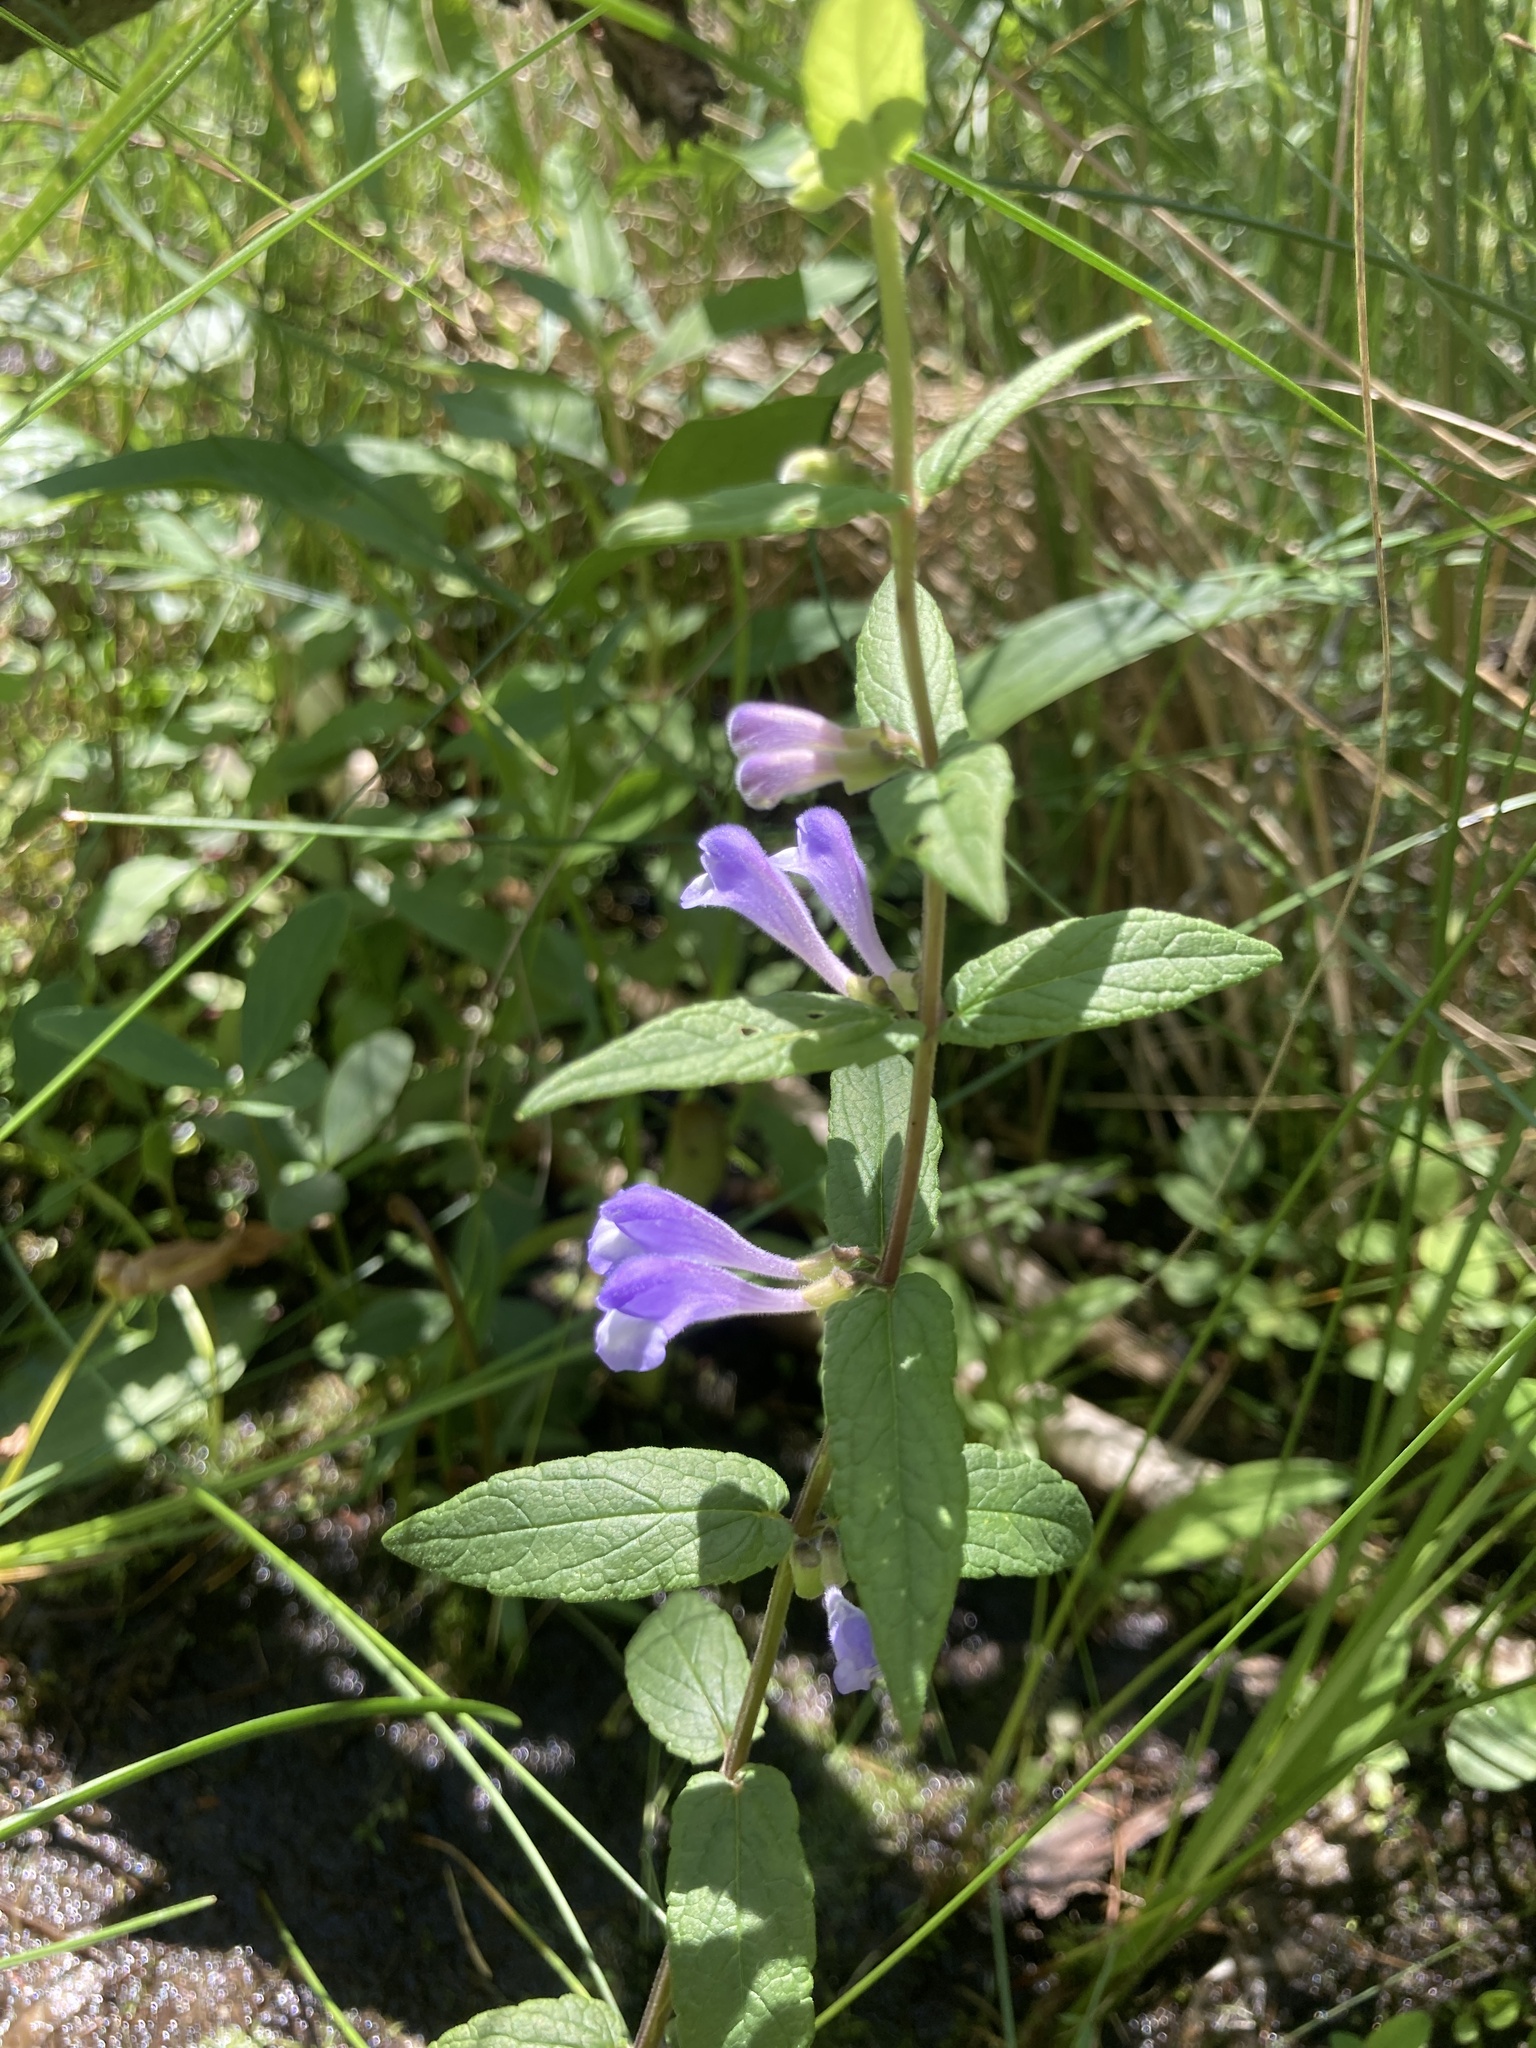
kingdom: Plantae
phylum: Tracheophyta
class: Magnoliopsida
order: Lamiales
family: Lamiaceae
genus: Scutellaria
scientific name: Scutellaria galericulata
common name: Skullcap
